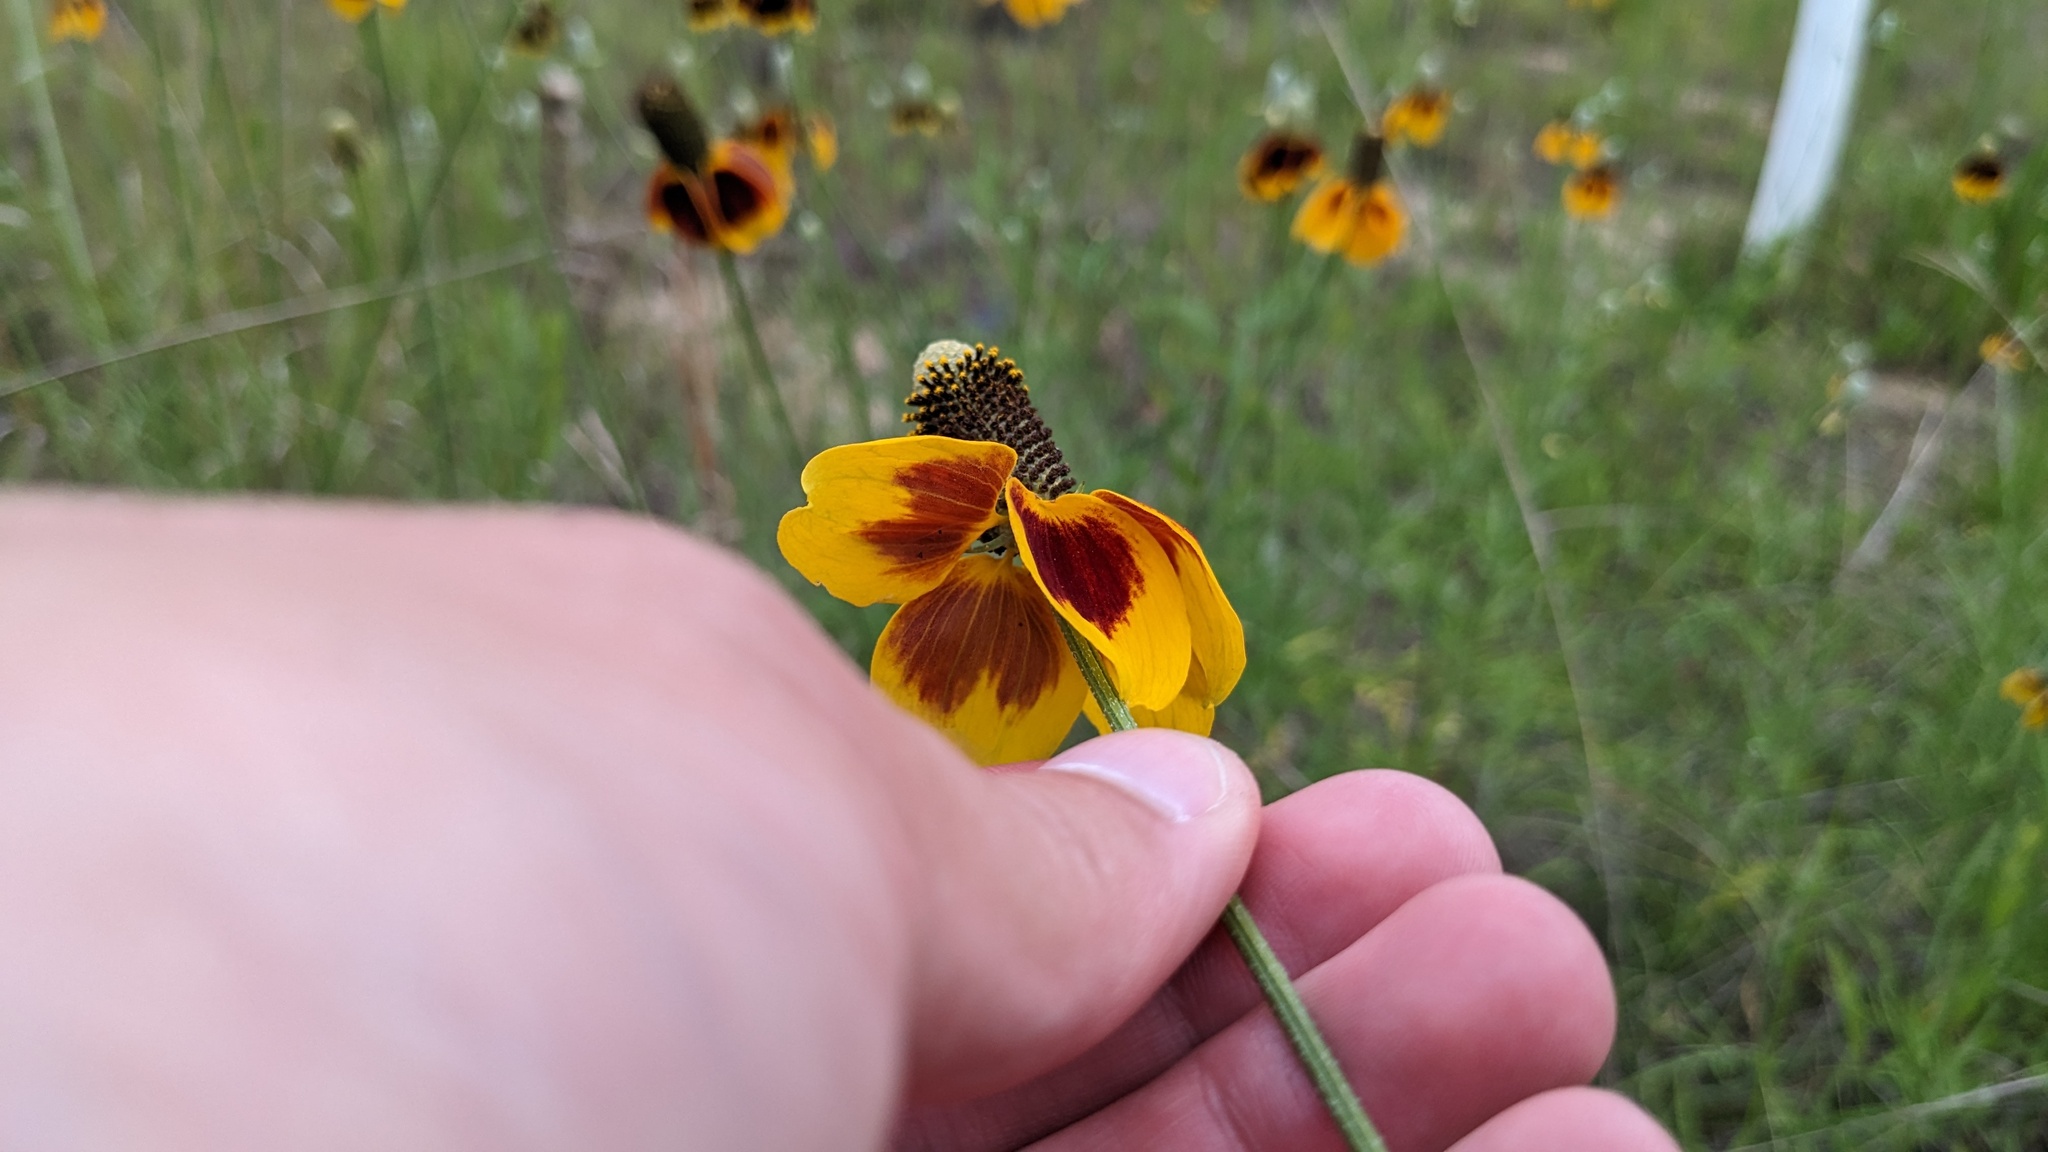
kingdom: Plantae
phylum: Tracheophyta
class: Magnoliopsida
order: Asterales
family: Asteraceae
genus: Ratibida
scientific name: Ratibida columnifera
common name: Prairie coneflower
